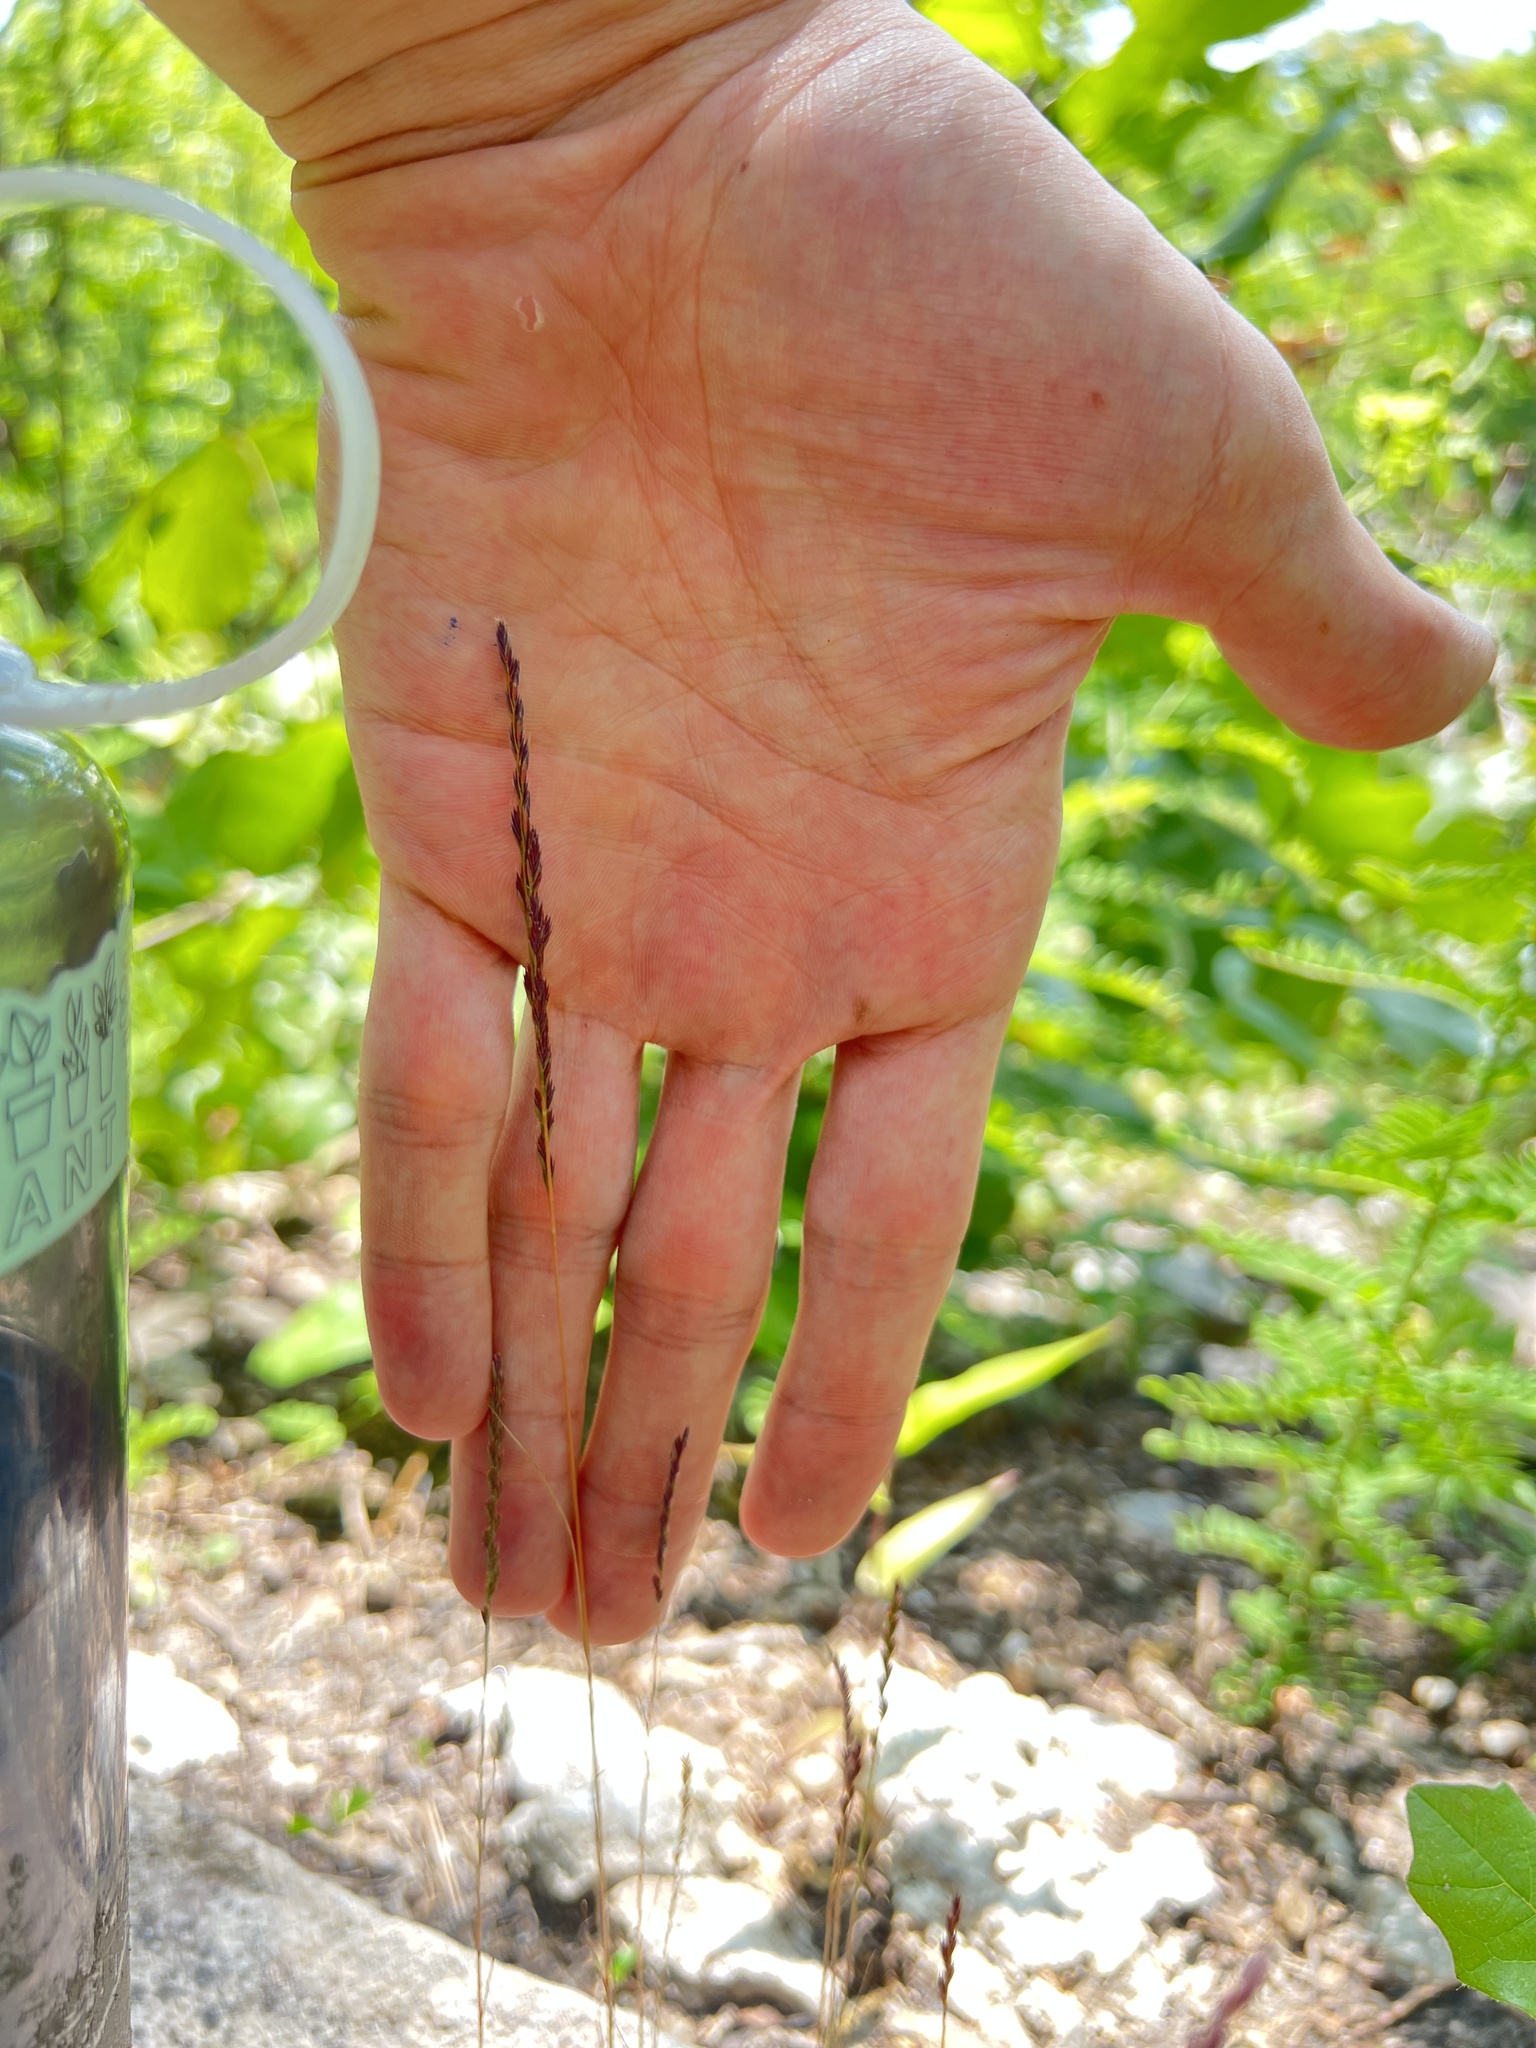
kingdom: Plantae
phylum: Tracheophyta
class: Liliopsida
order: Poales
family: Poaceae
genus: Festuca
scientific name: Festuca octoflora
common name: Sixweeks grass
